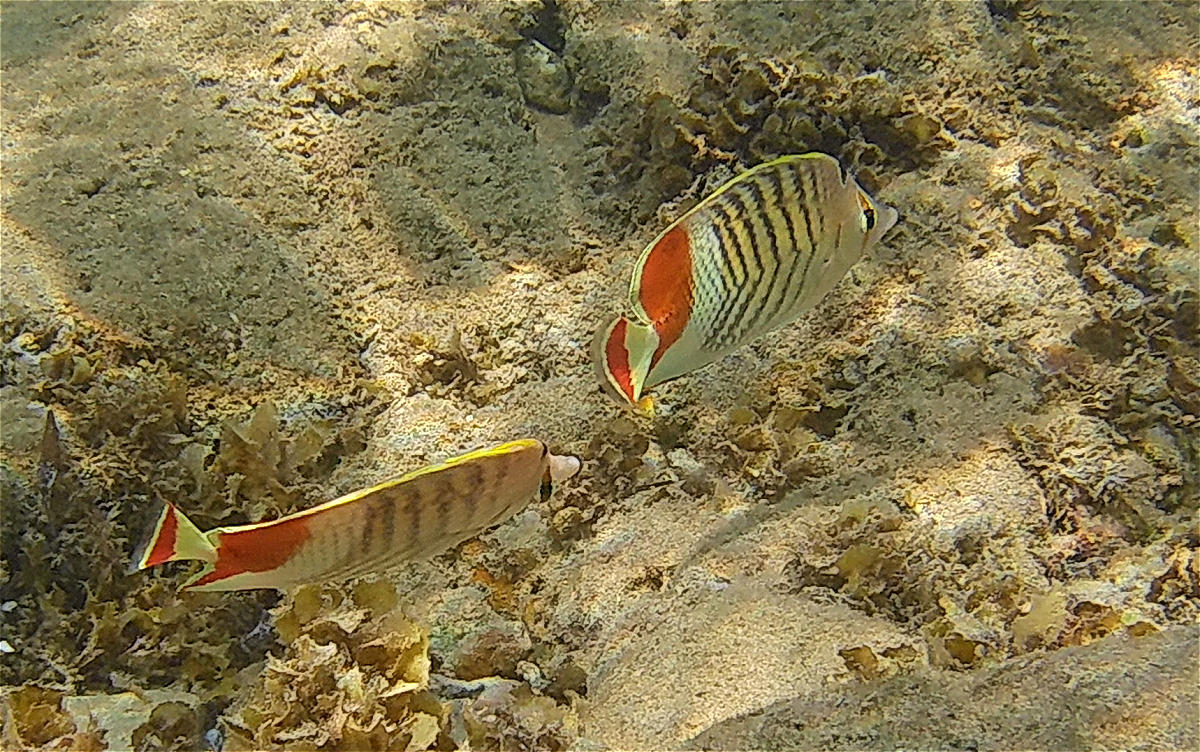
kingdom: Animalia
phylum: Chordata
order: Perciformes
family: Chaetodontidae
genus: Chaetodon
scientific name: Chaetodon paucifasciatus
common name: Crown butterflyfish
